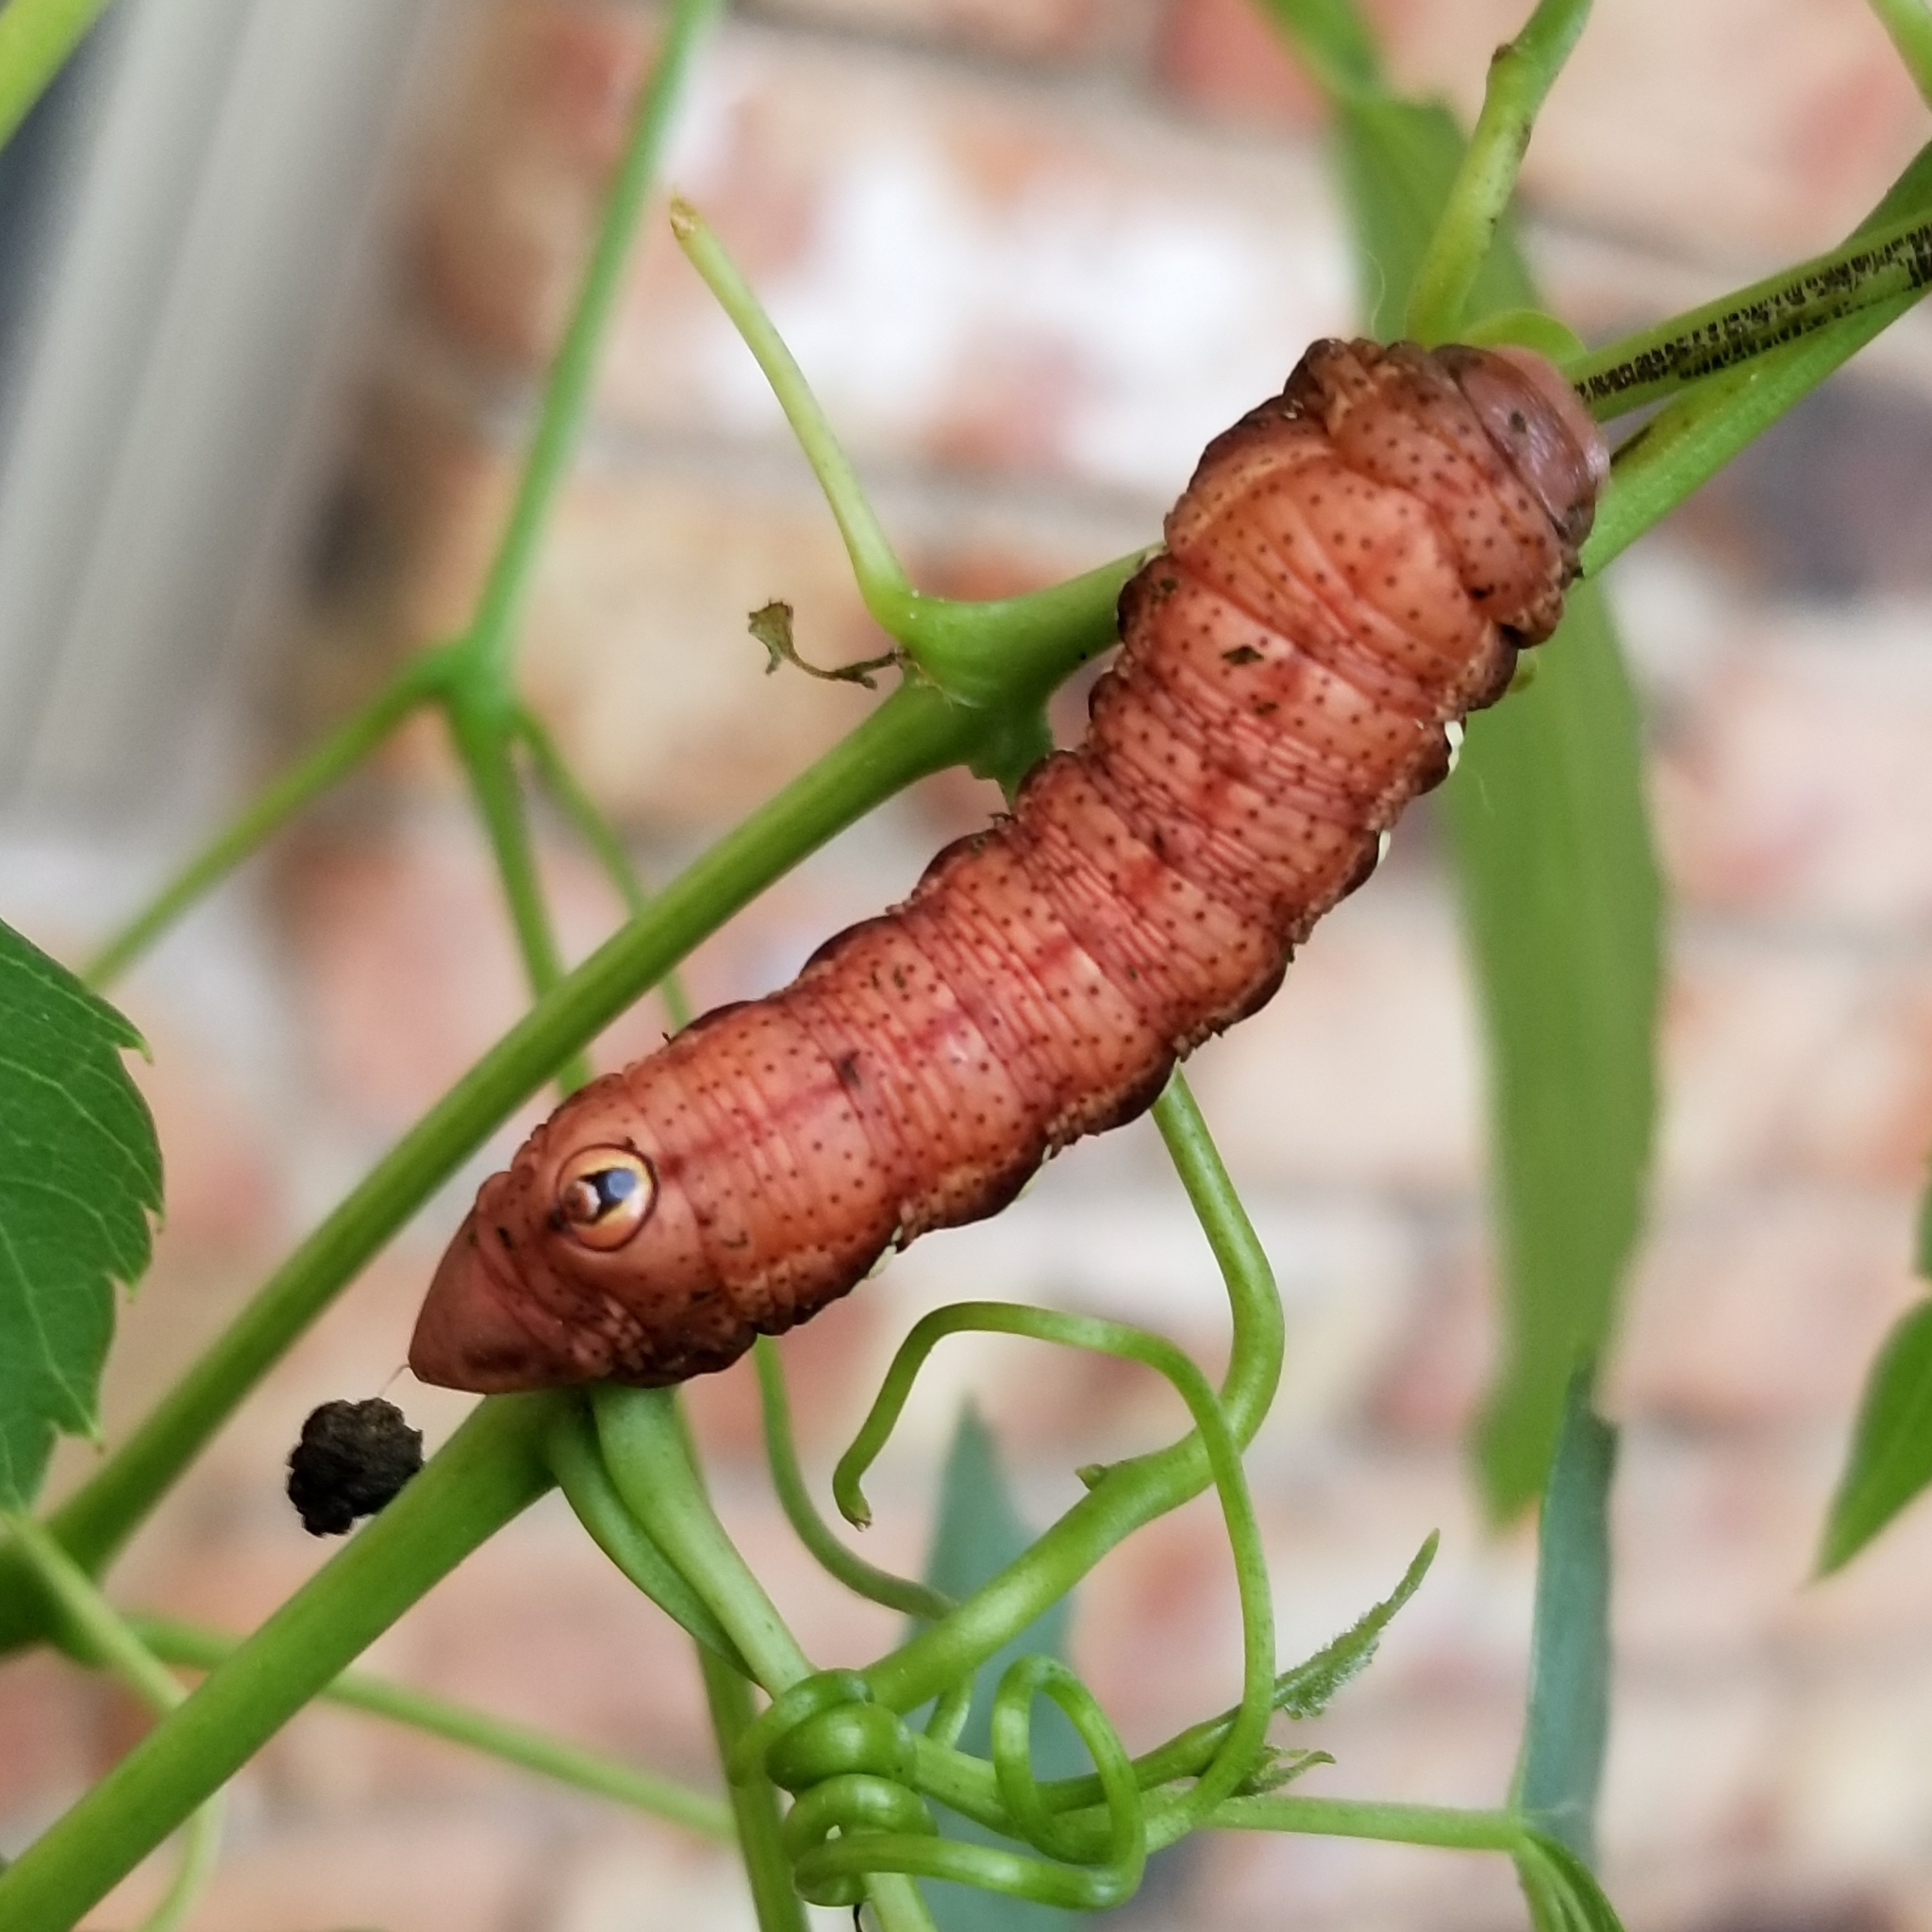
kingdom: Animalia
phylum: Arthropoda
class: Insecta
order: Lepidoptera
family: Sphingidae
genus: Eumorpha
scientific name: Eumorpha achemon
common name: Achemon sphinx
